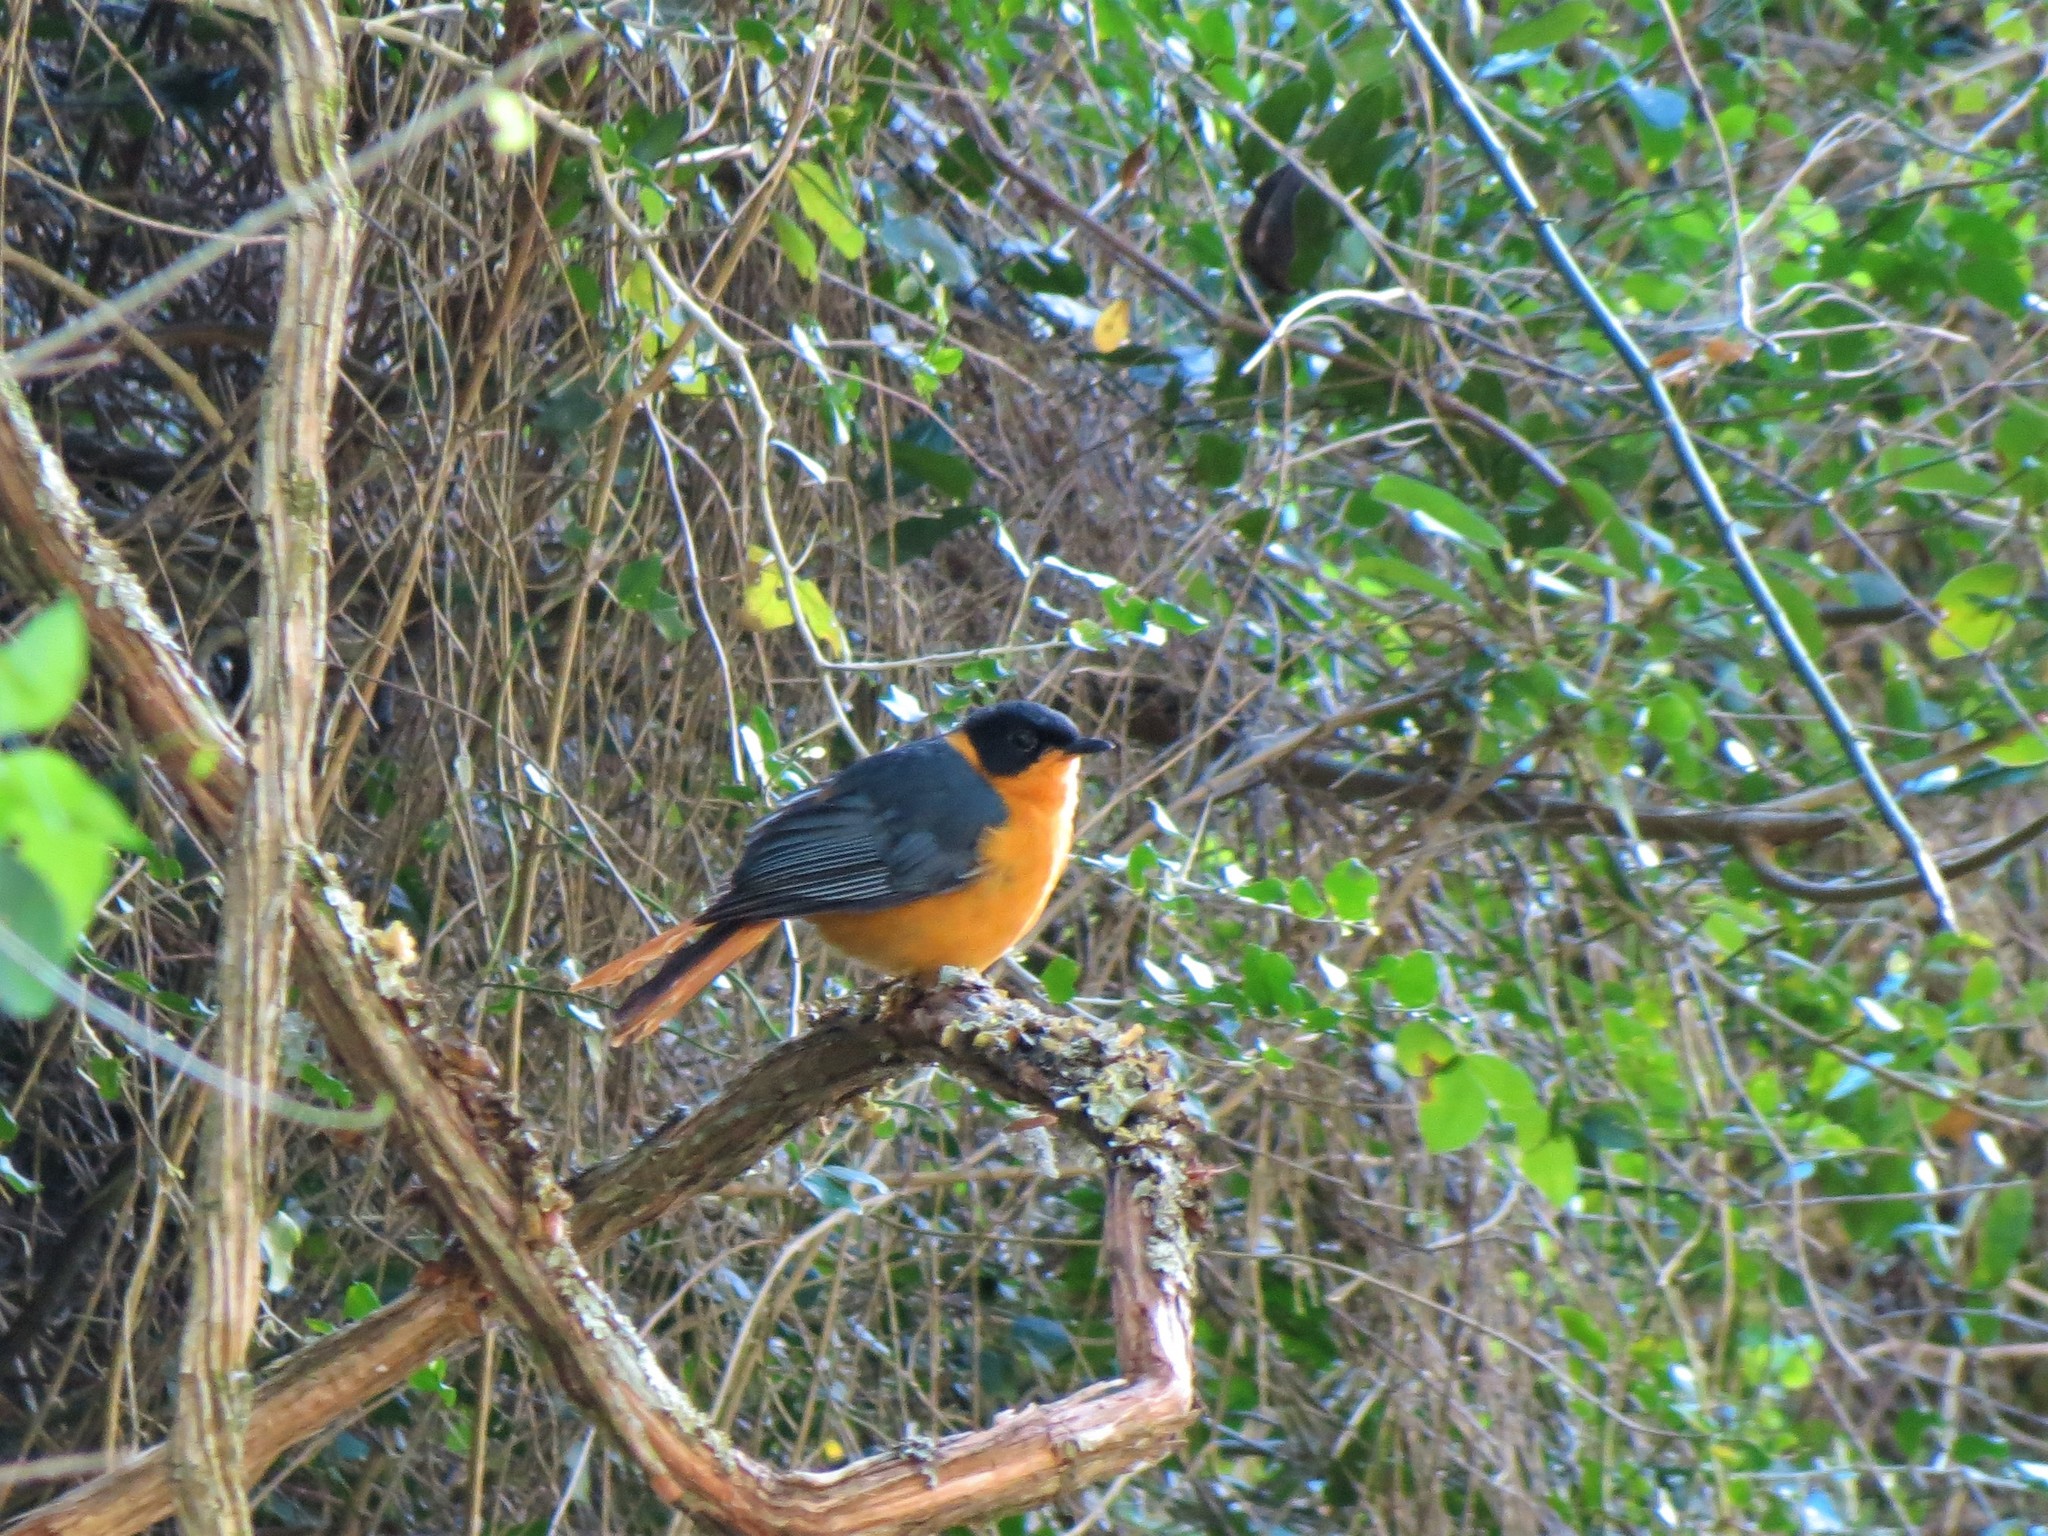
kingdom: Animalia
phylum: Chordata
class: Aves
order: Passeriformes
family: Muscicapidae
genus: Cossypha
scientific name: Cossypha dichroa
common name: Chorister robin-chat
